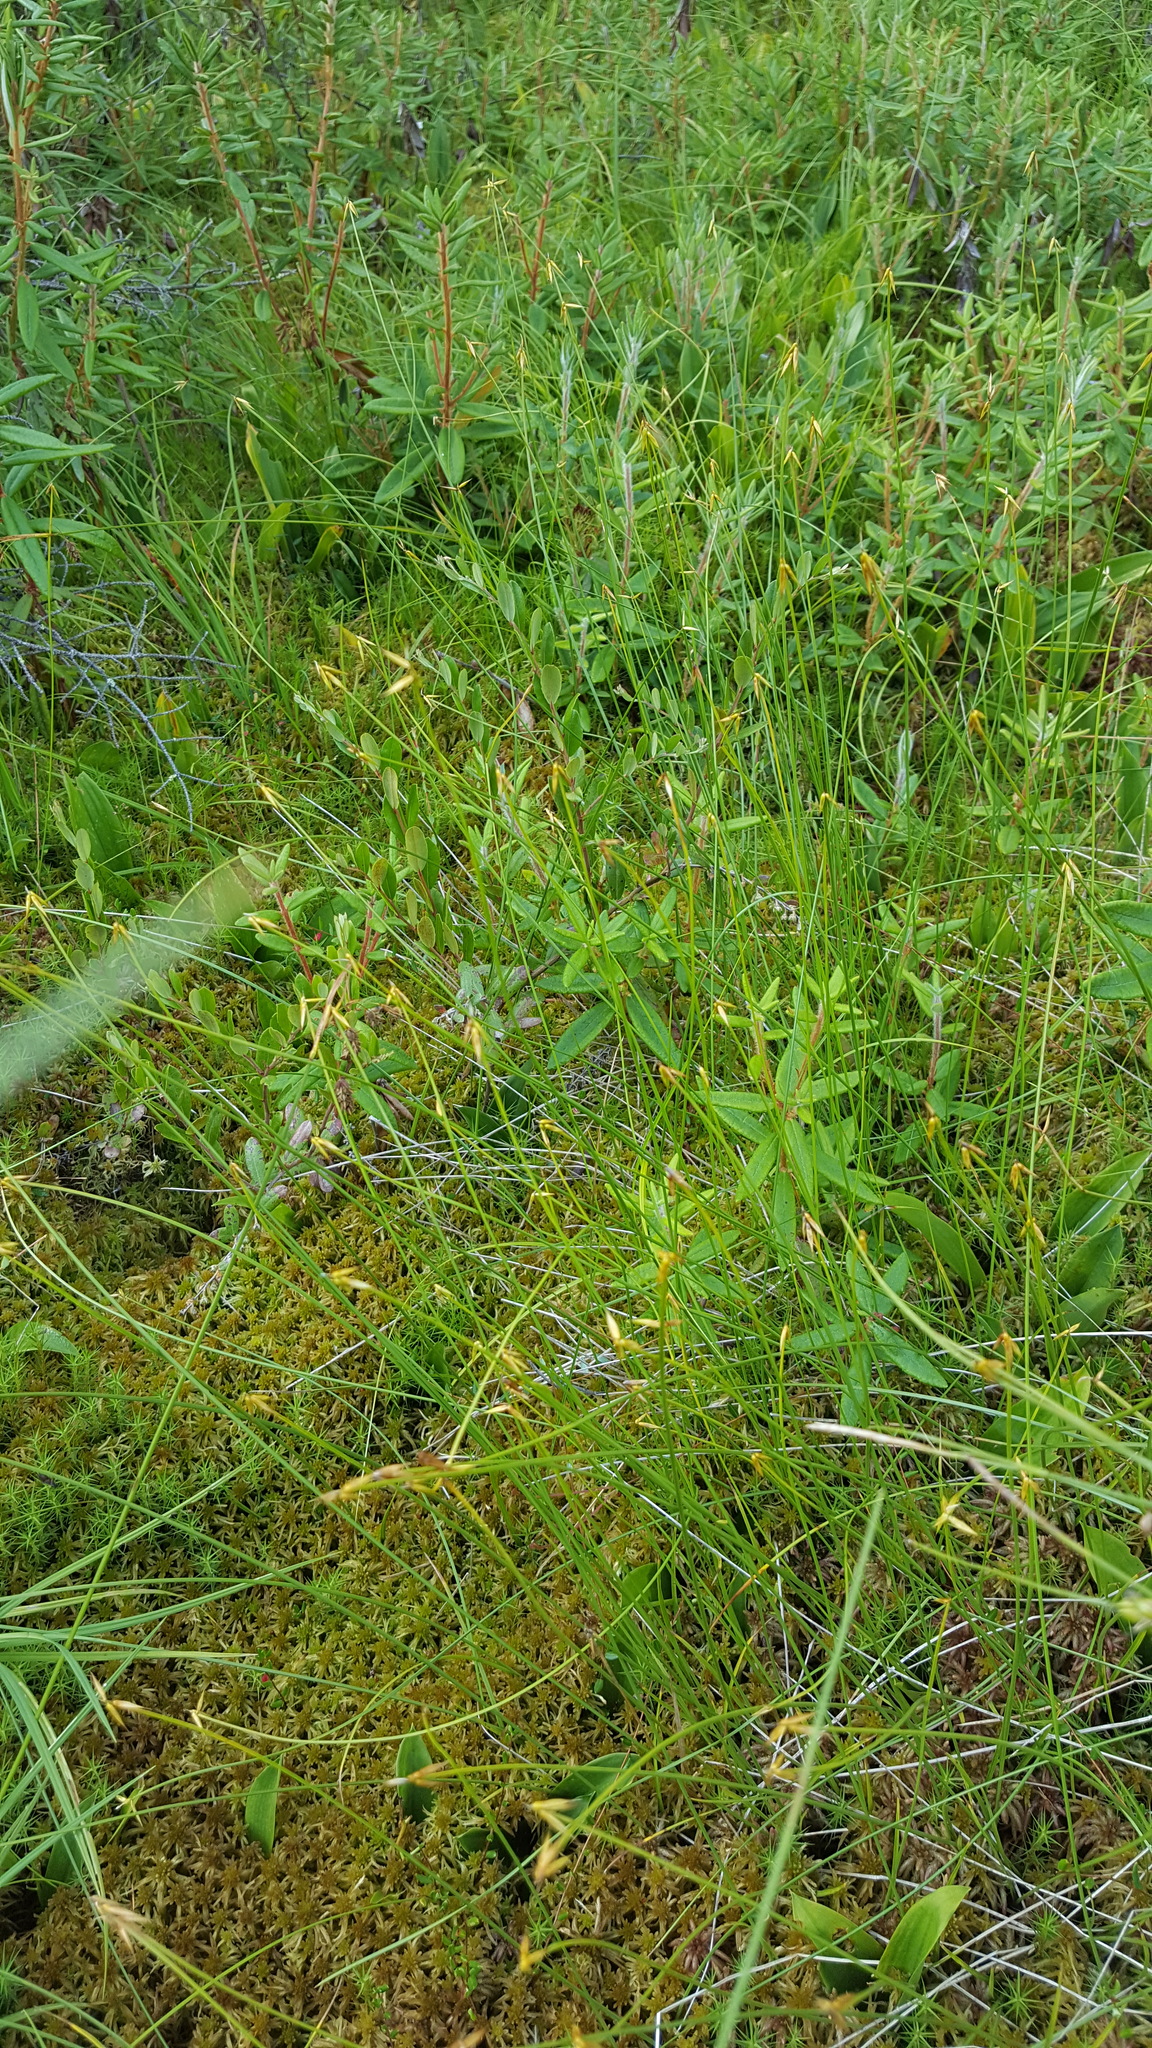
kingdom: Plantae
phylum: Tracheophyta
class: Liliopsida
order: Poales
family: Cyperaceae
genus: Carex
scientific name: Carex pauciflora
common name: Few-flowered sedge
